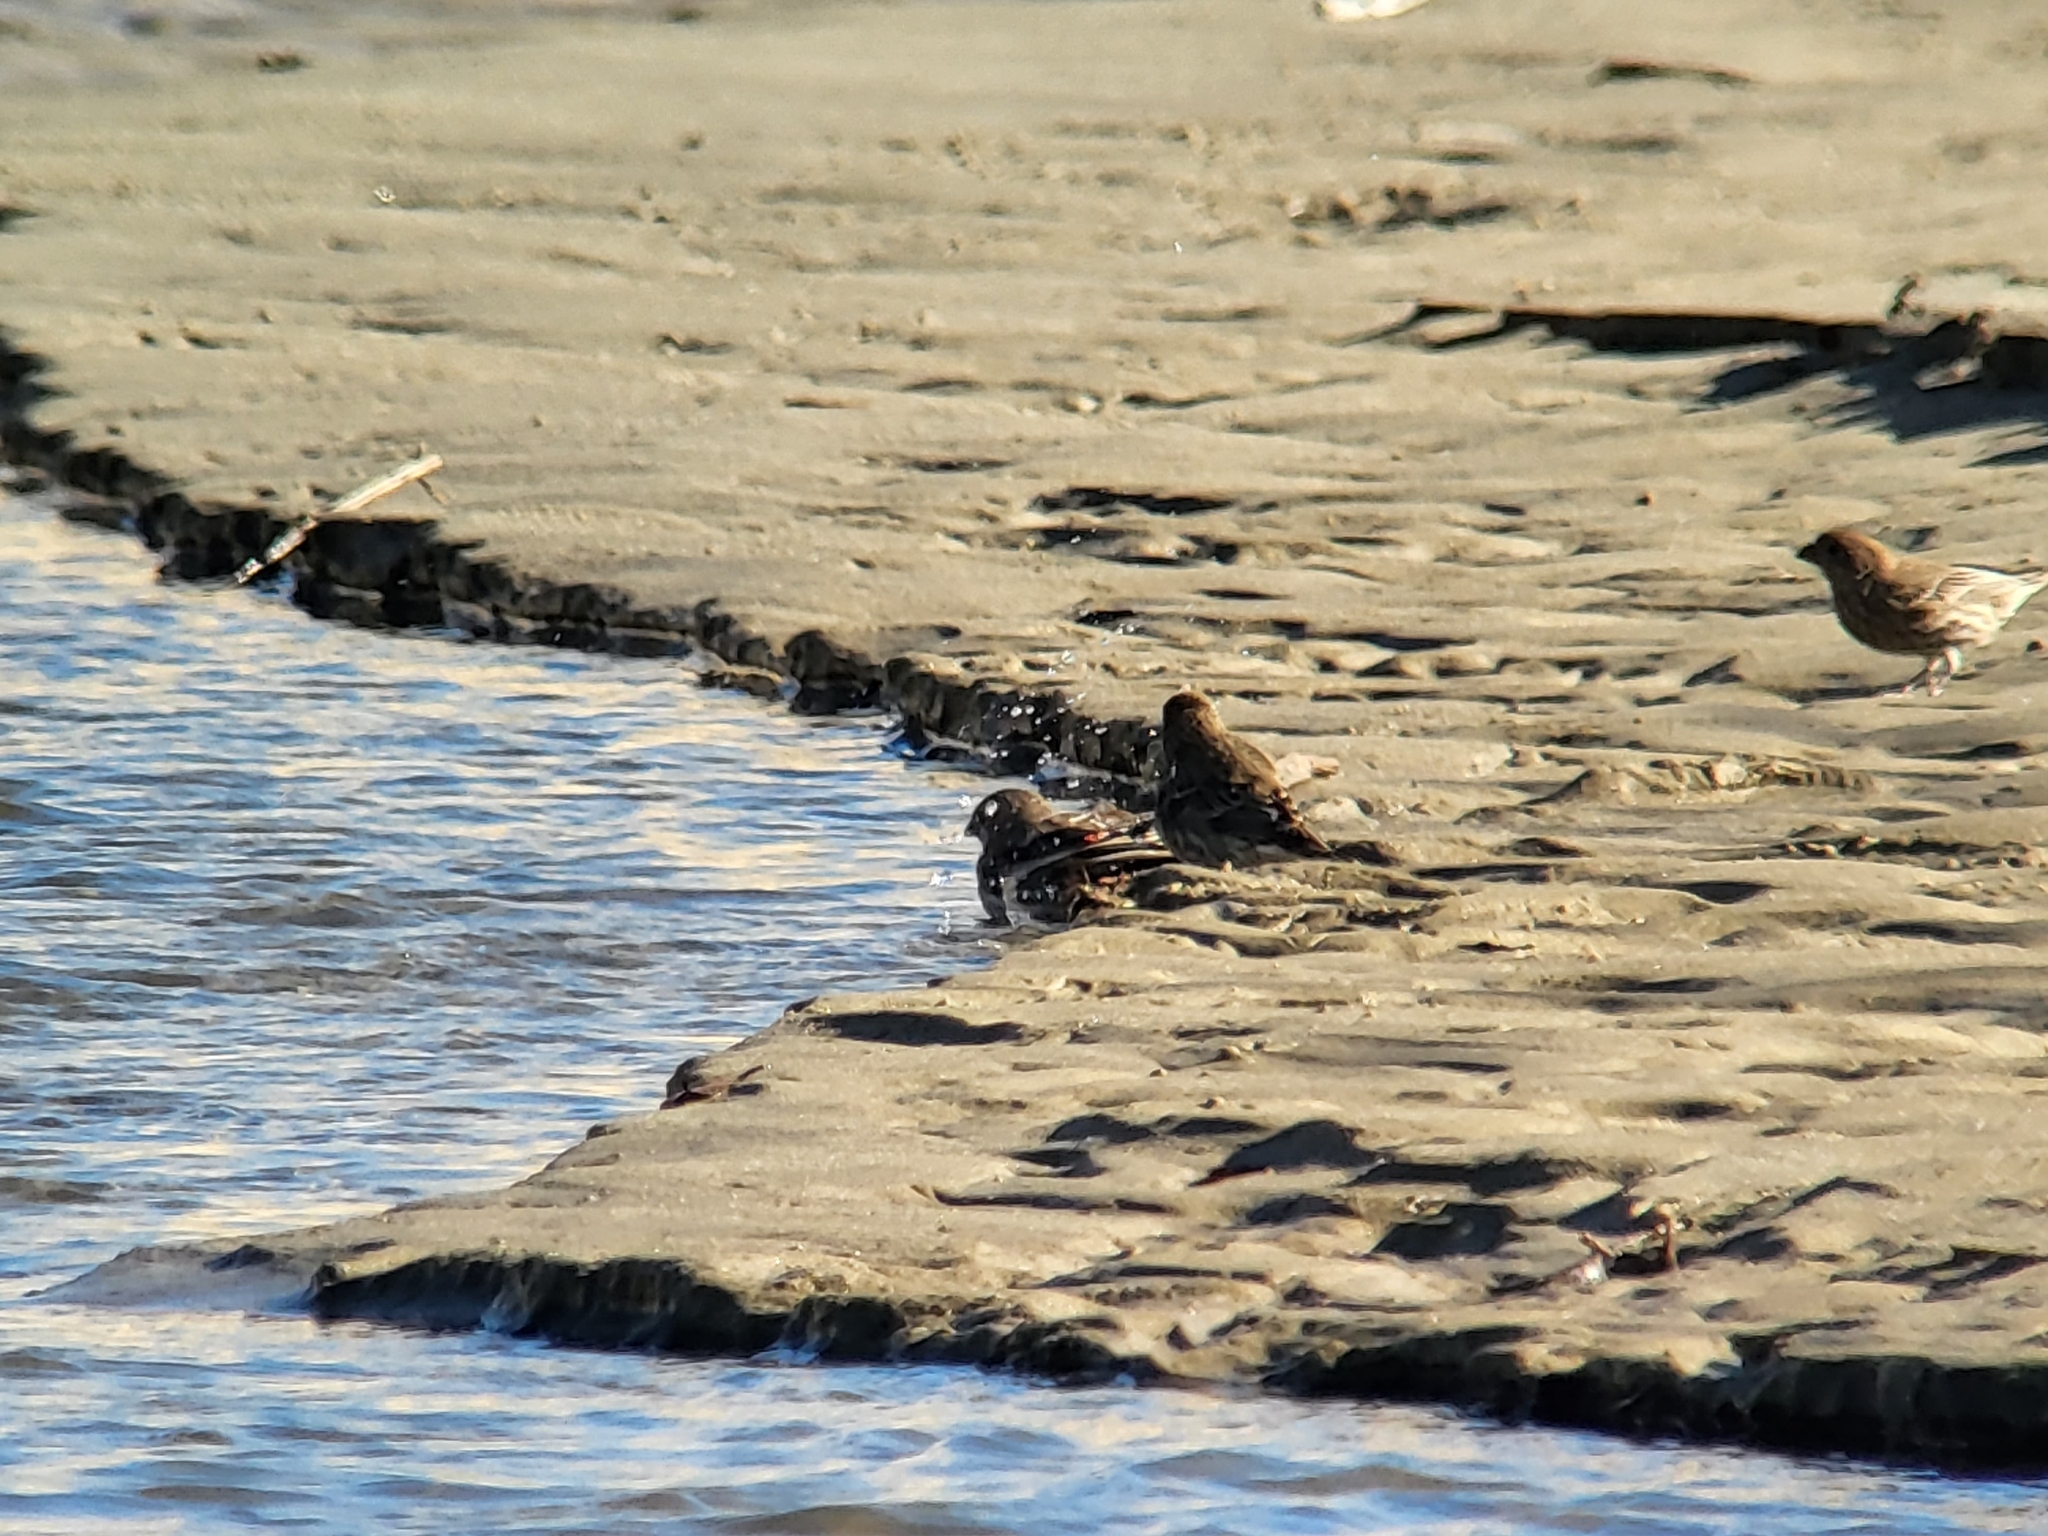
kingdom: Animalia
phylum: Chordata
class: Aves
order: Passeriformes
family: Fringillidae
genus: Haemorhous
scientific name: Haemorhous mexicanus
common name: House finch
